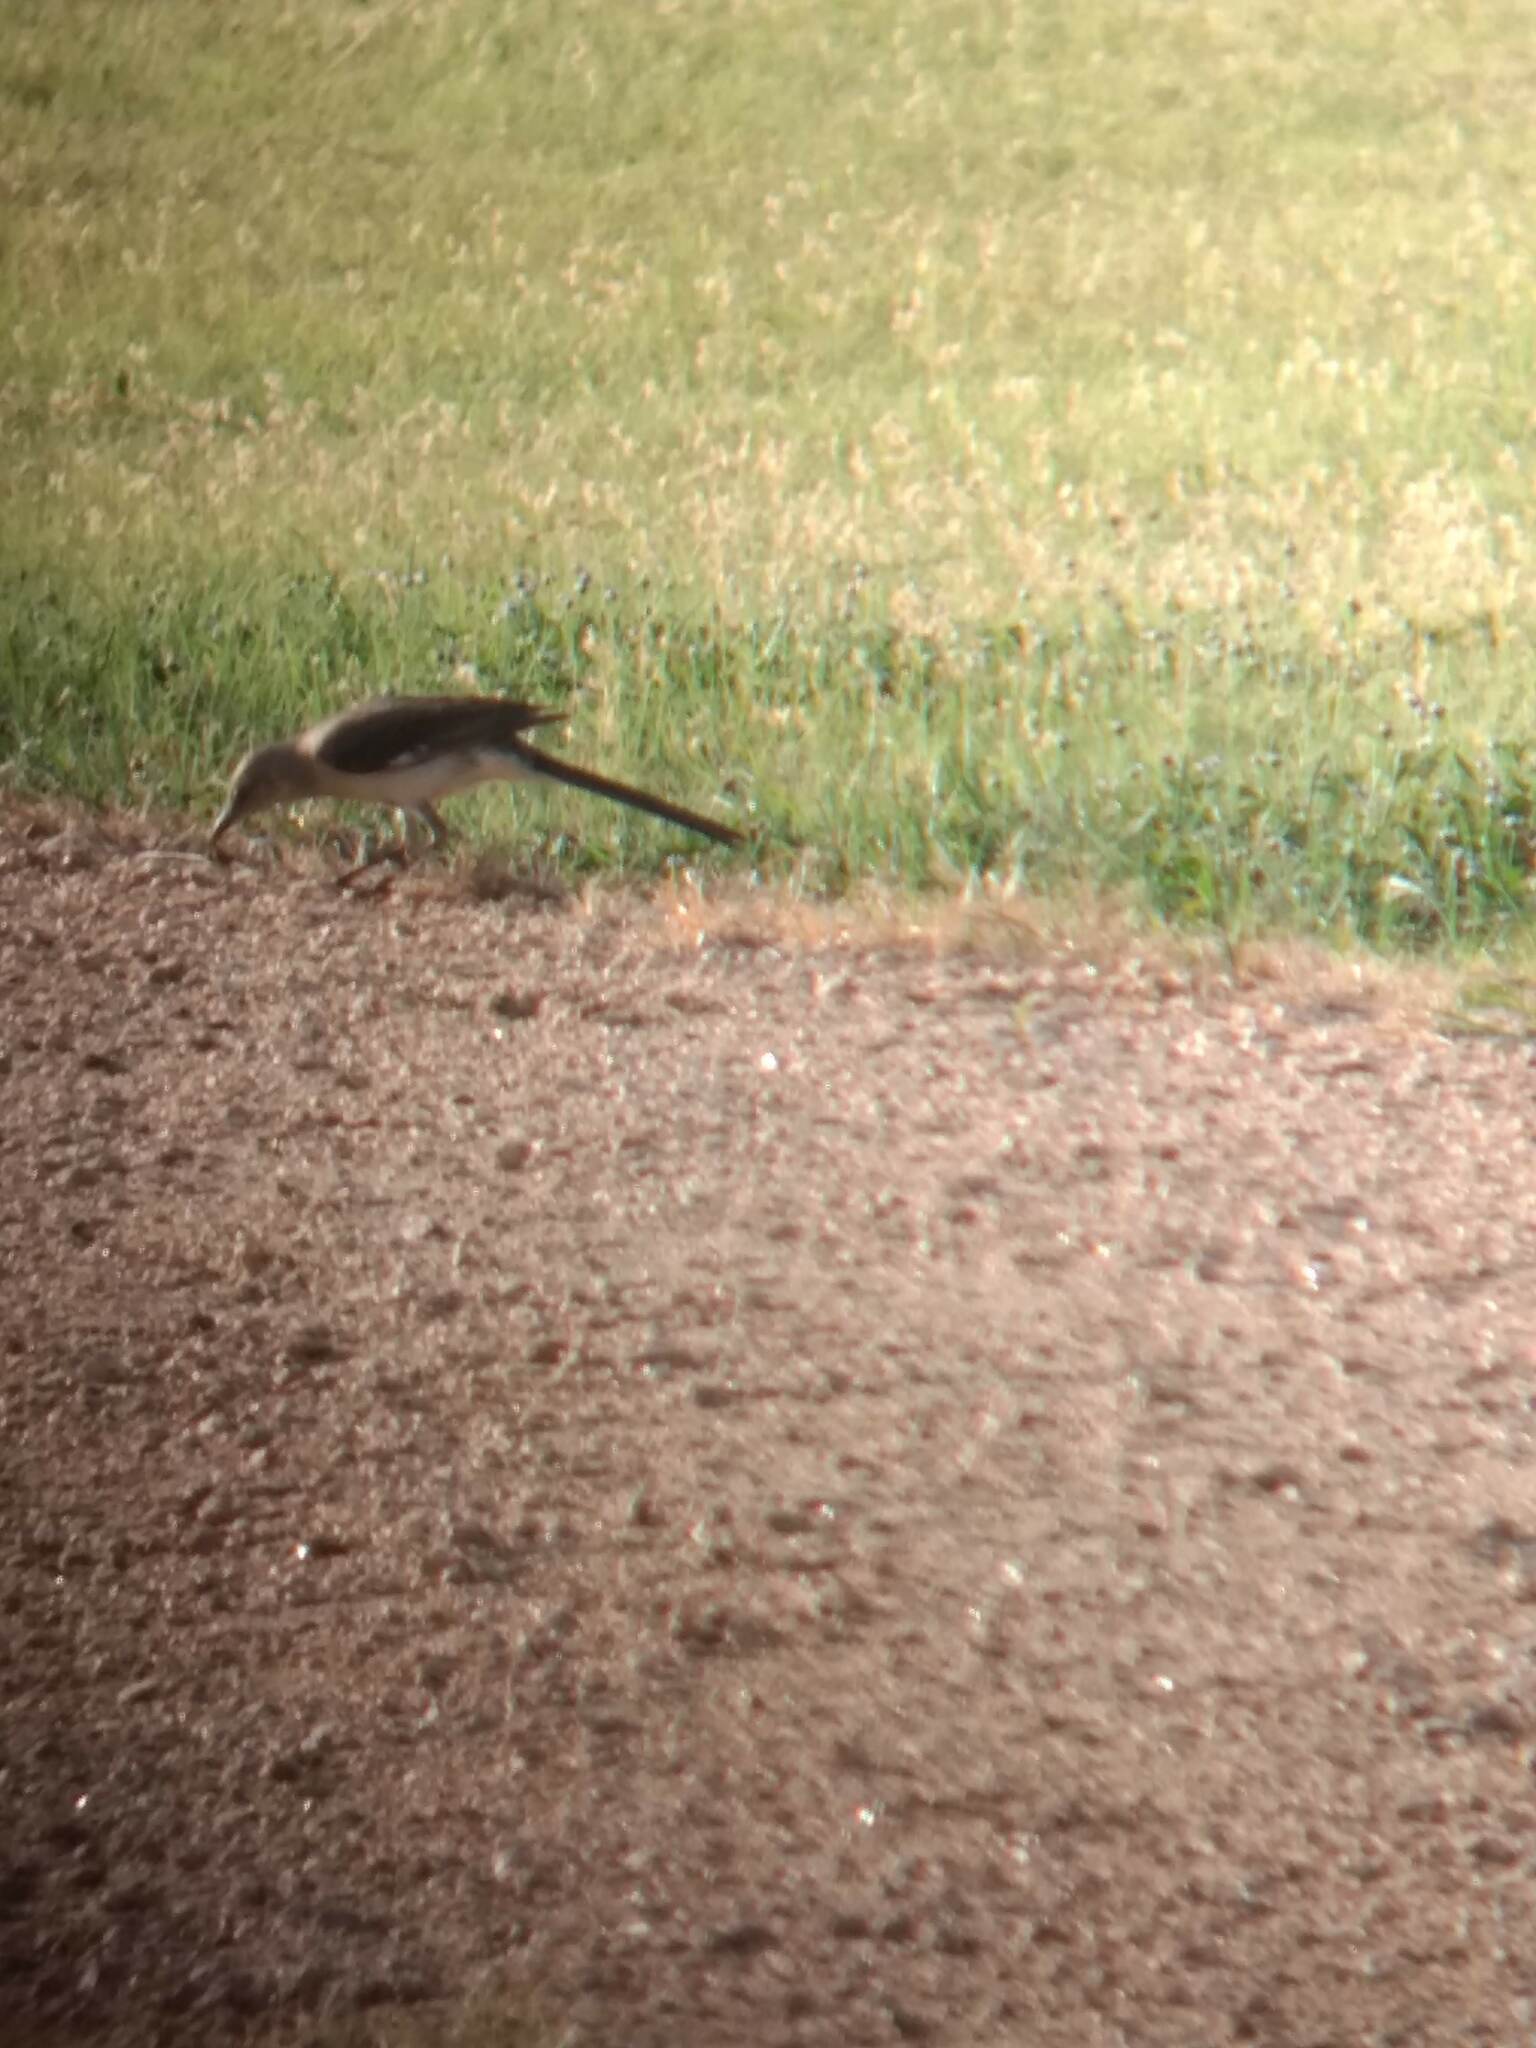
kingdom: Animalia
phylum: Chordata
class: Aves
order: Passeriformes
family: Mimidae
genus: Mimus
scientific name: Mimus polyglottos
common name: Northern mockingbird
